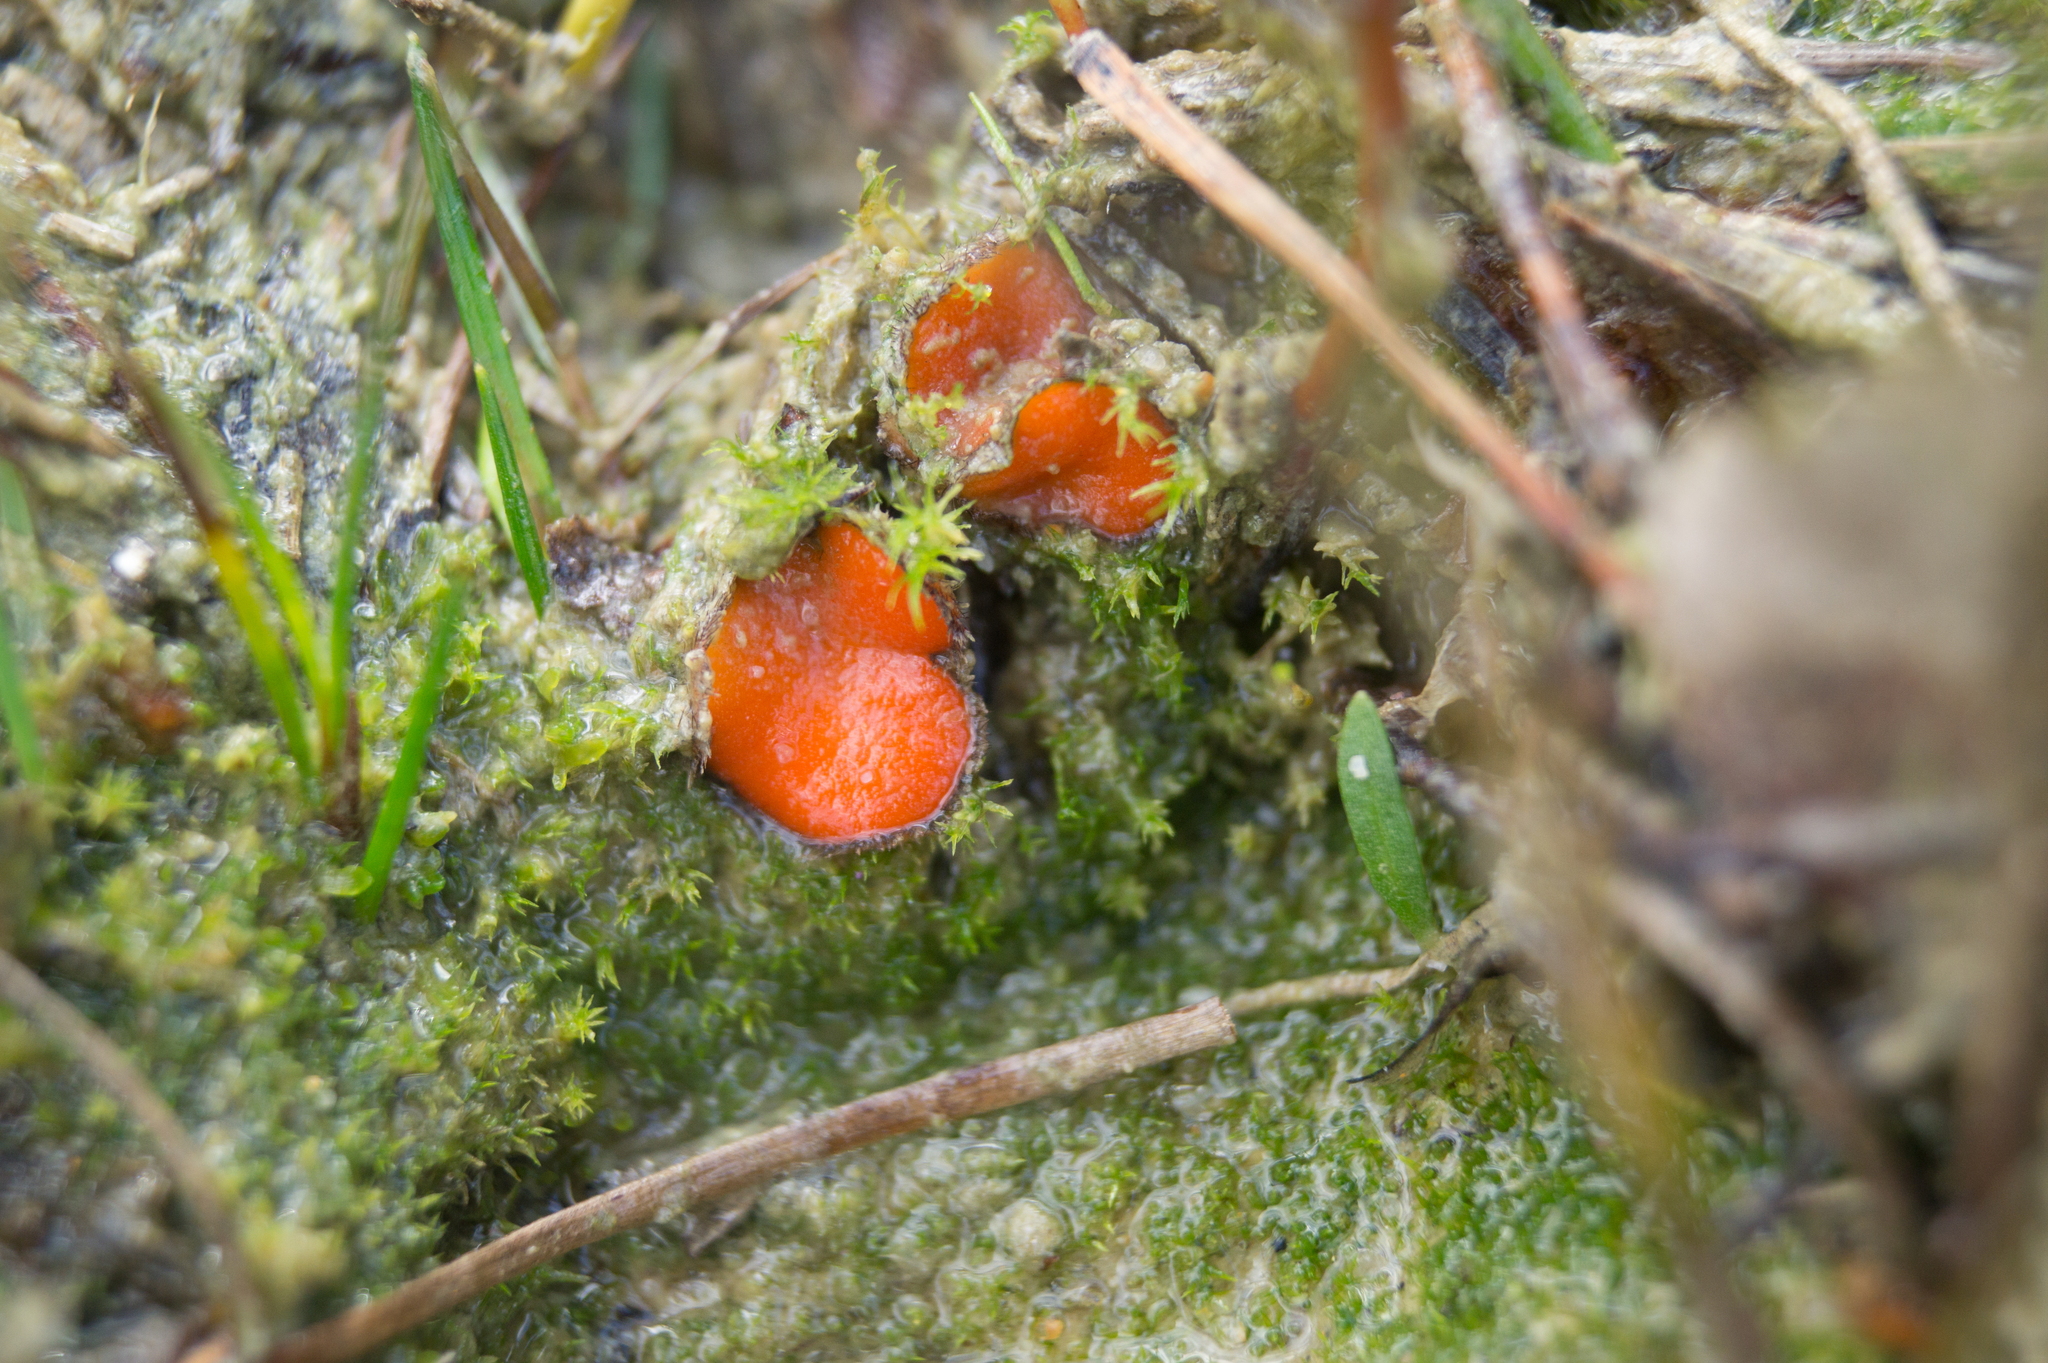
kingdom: Fungi
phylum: Ascomycota
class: Pezizomycetes
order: Pezizales
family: Pyronemataceae
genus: Scutellinia
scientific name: Scutellinia subhirtella
